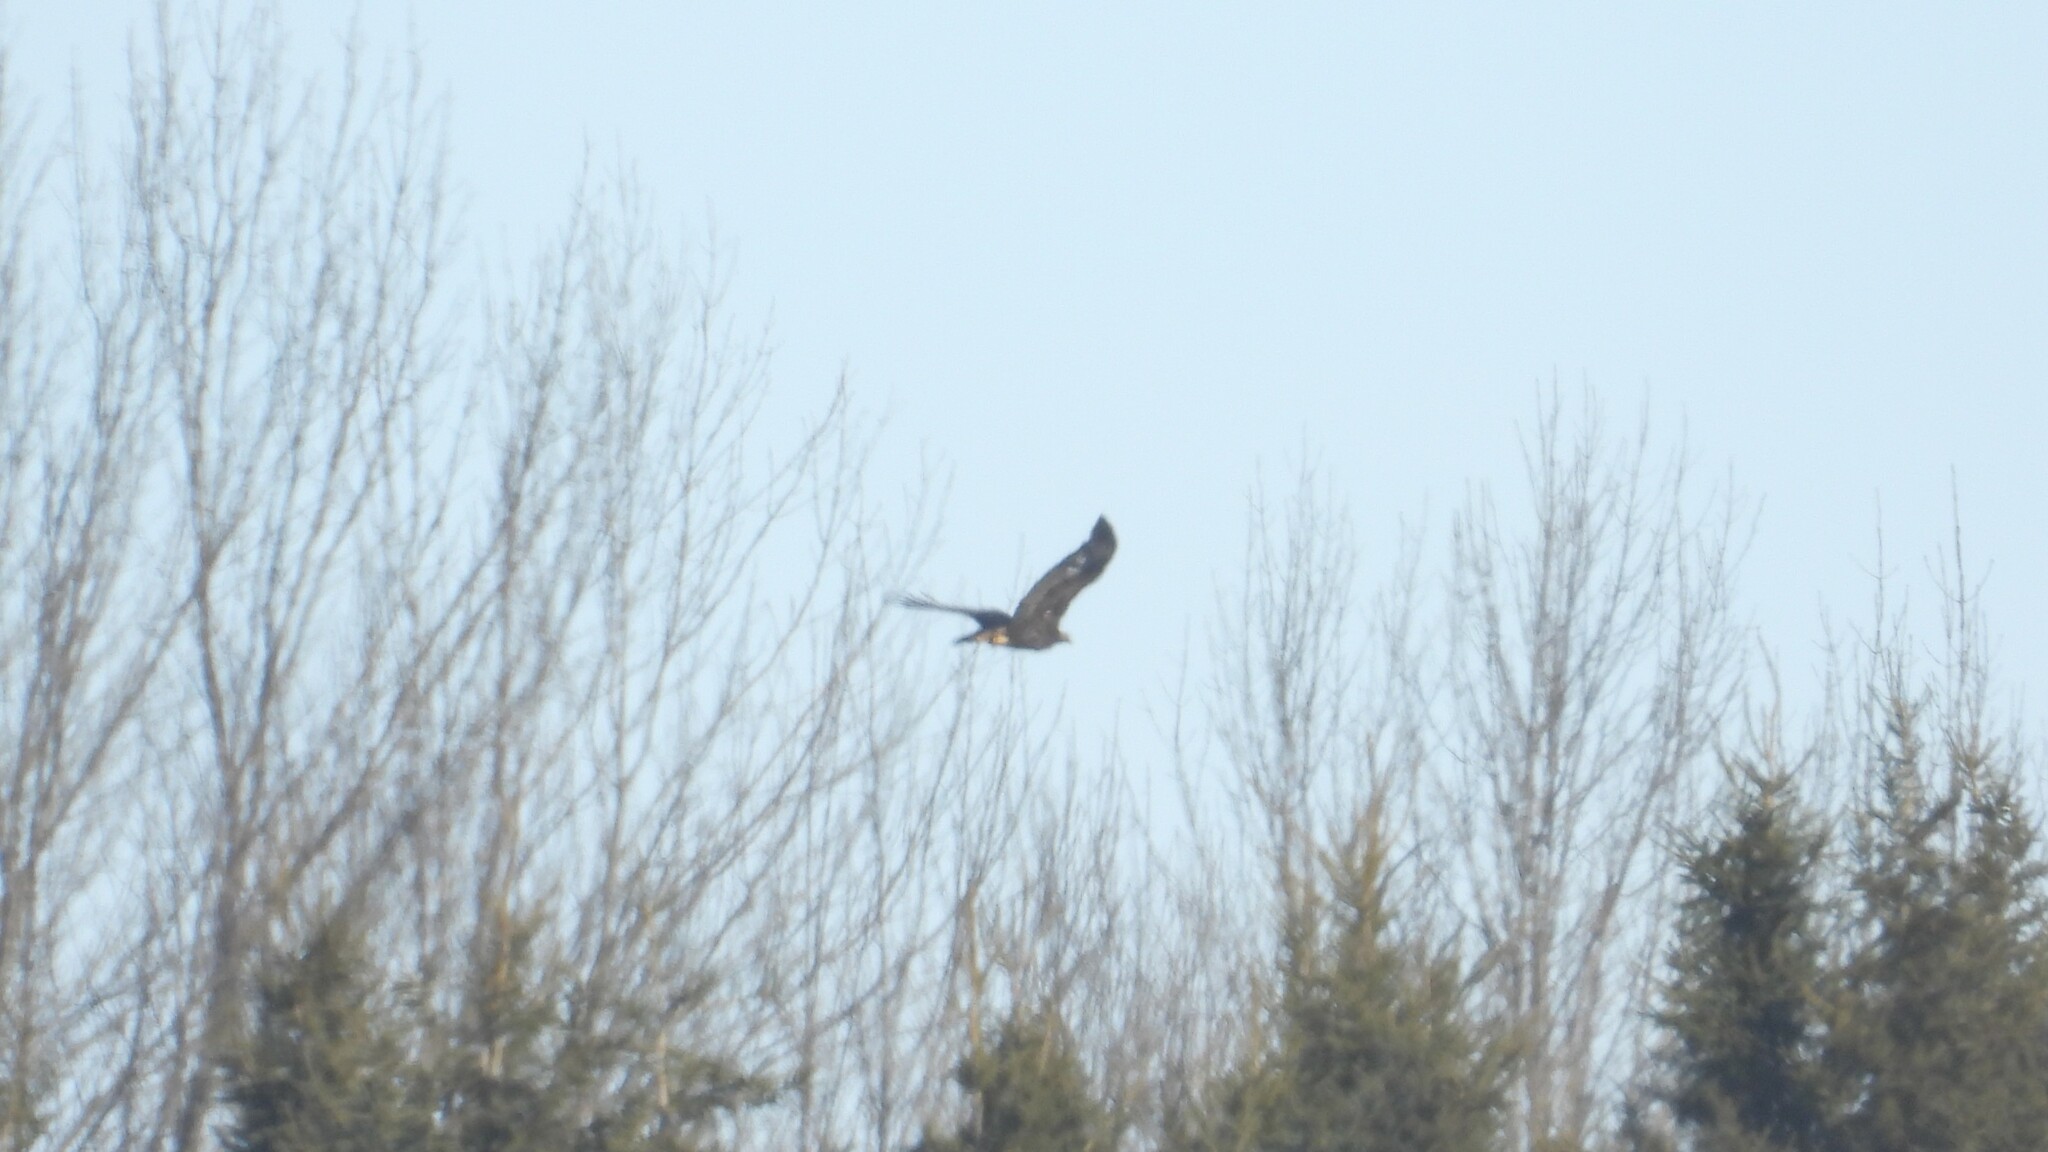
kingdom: Animalia
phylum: Chordata
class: Aves
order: Accipitriformes
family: Accipitridae
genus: Aquila
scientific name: Aquila chrysaetos
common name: Golden eagle
